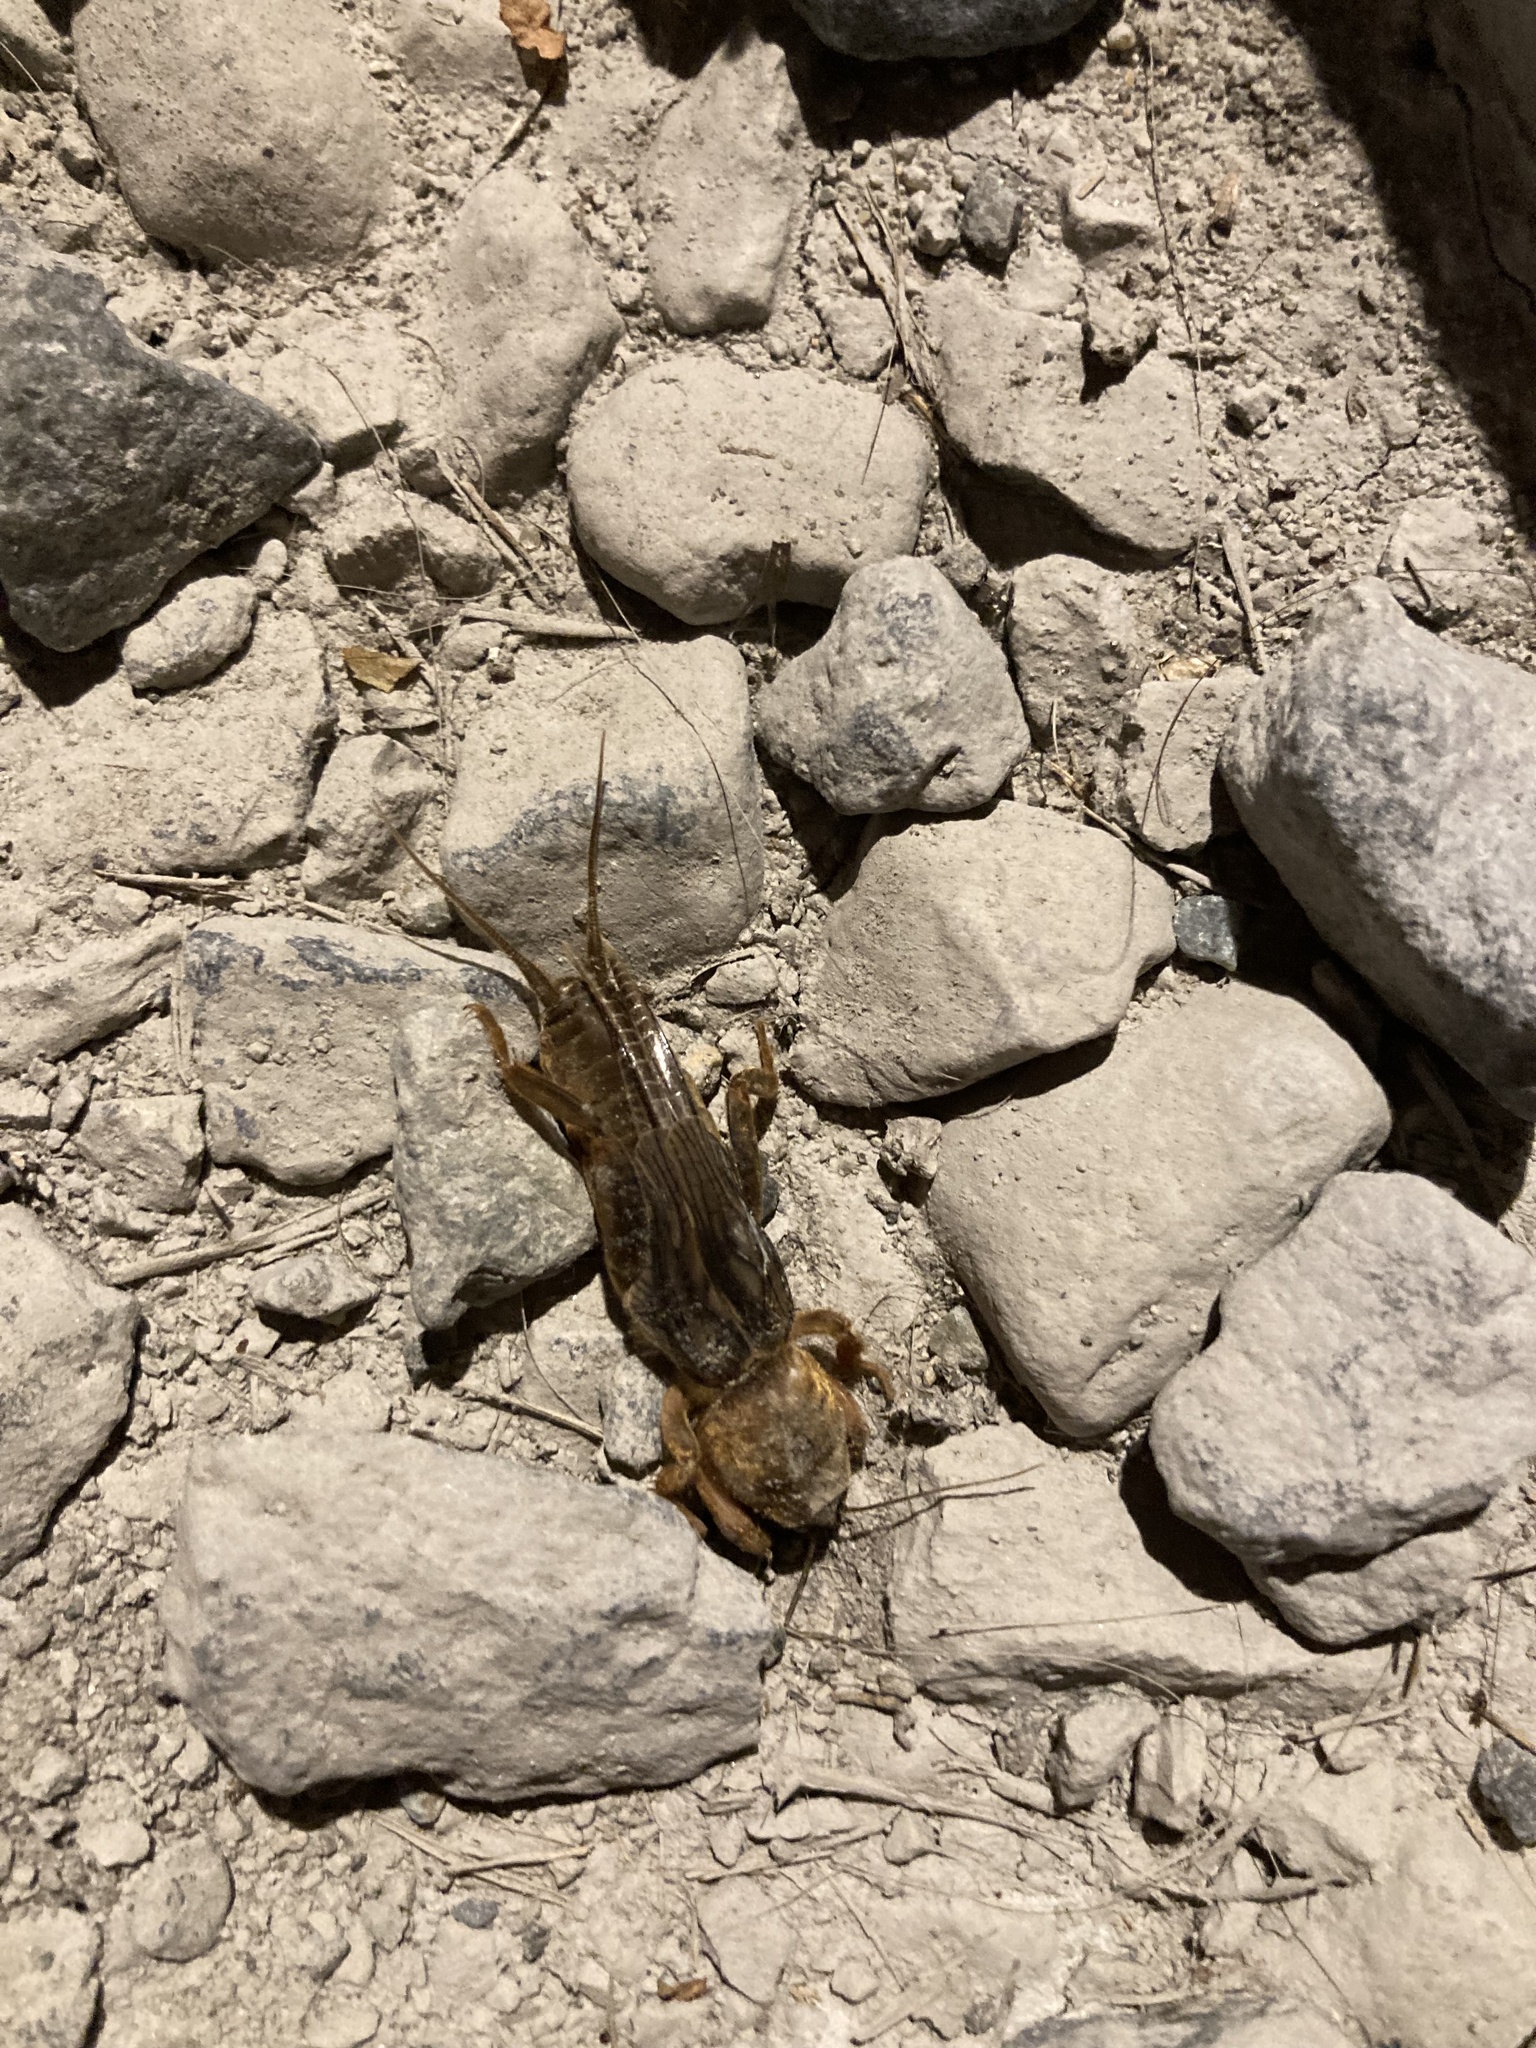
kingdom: Animalia
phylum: Arthropoda
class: Insecta
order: Orthoptera
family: Gryllotalpidae
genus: Neocurtilla
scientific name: Neocurtilla hexadactyla
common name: Northern mole cricket
